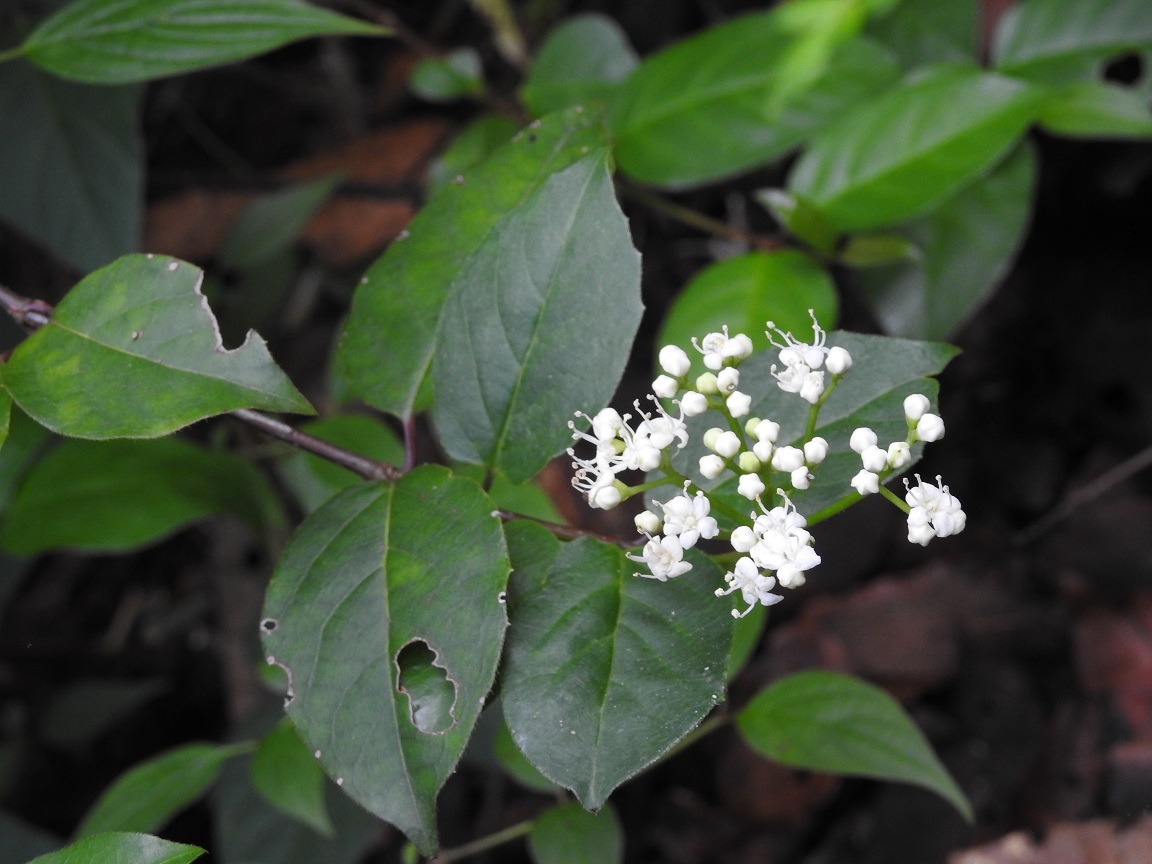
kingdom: Plantae
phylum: Tracheophyta
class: Magnoliopsida
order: Dipsacales
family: Viburnaceae
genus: Viburnum
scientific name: Viburnum lautum
